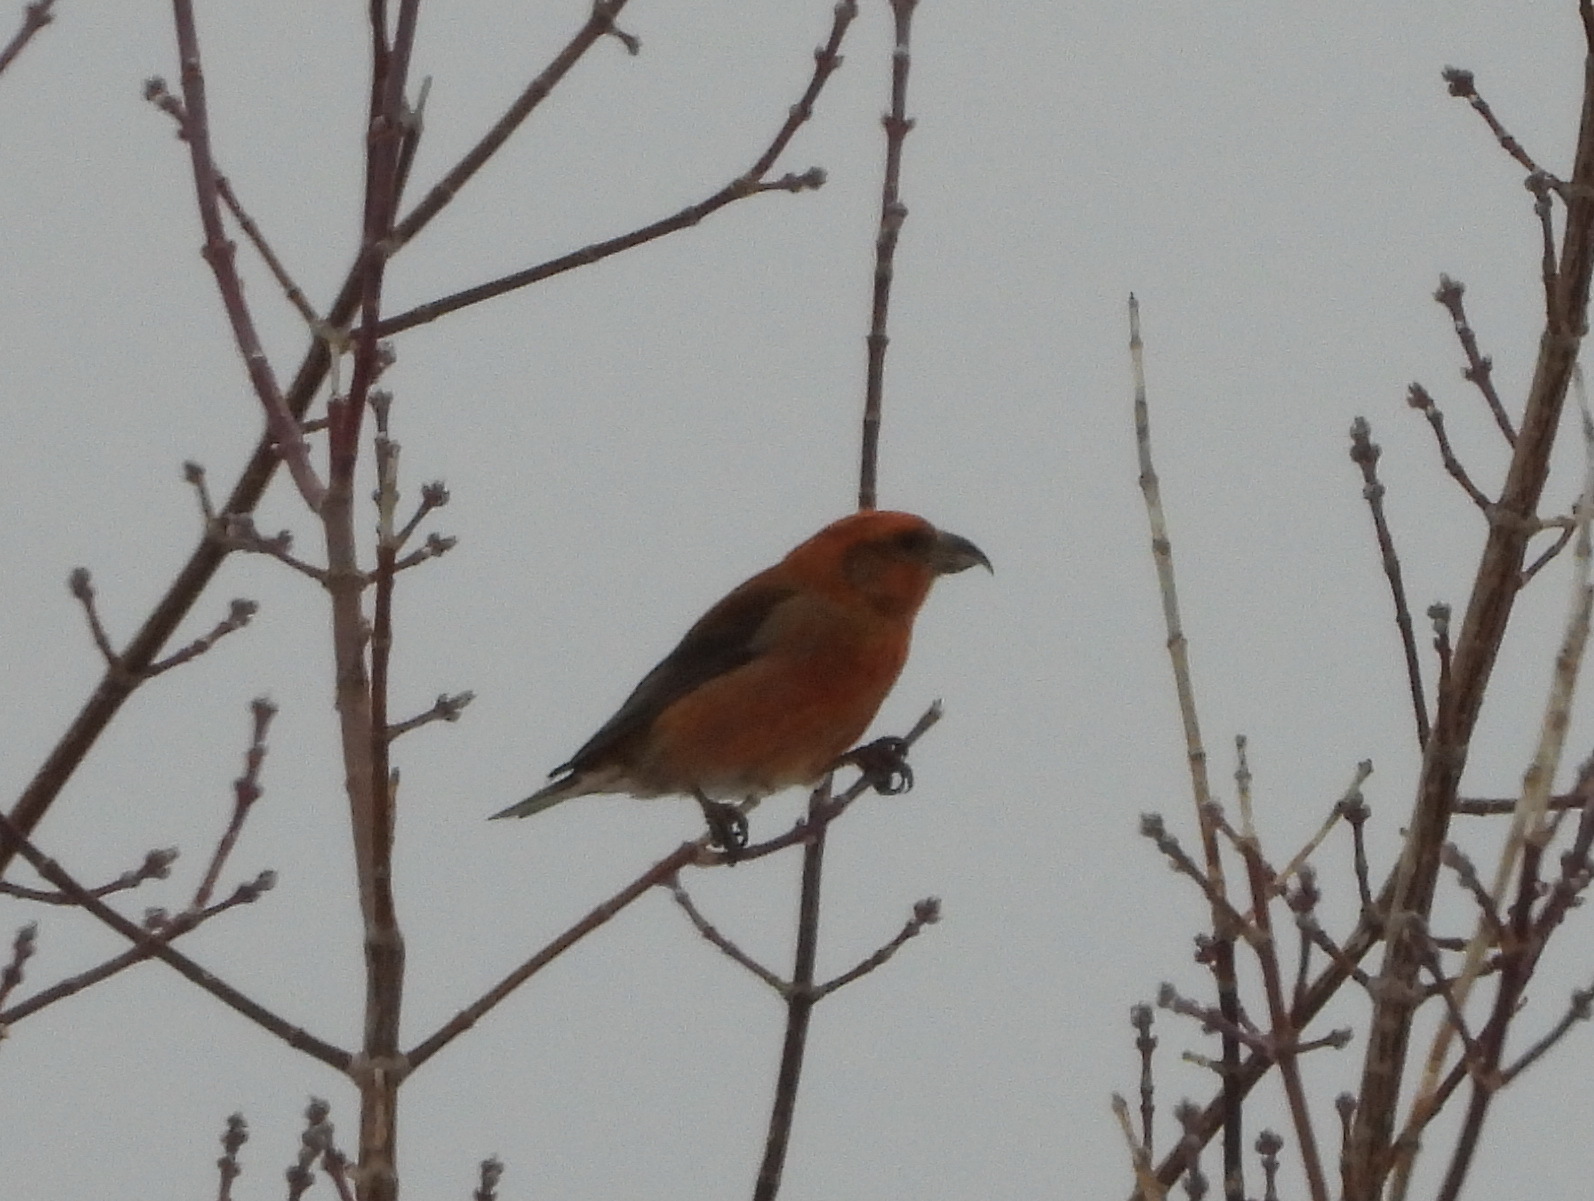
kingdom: Animalia
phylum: Chordata
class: Aves
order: Passeriformes
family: Fringillidae
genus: Loxia
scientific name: Loxia curvirostra
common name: Red crossbill
